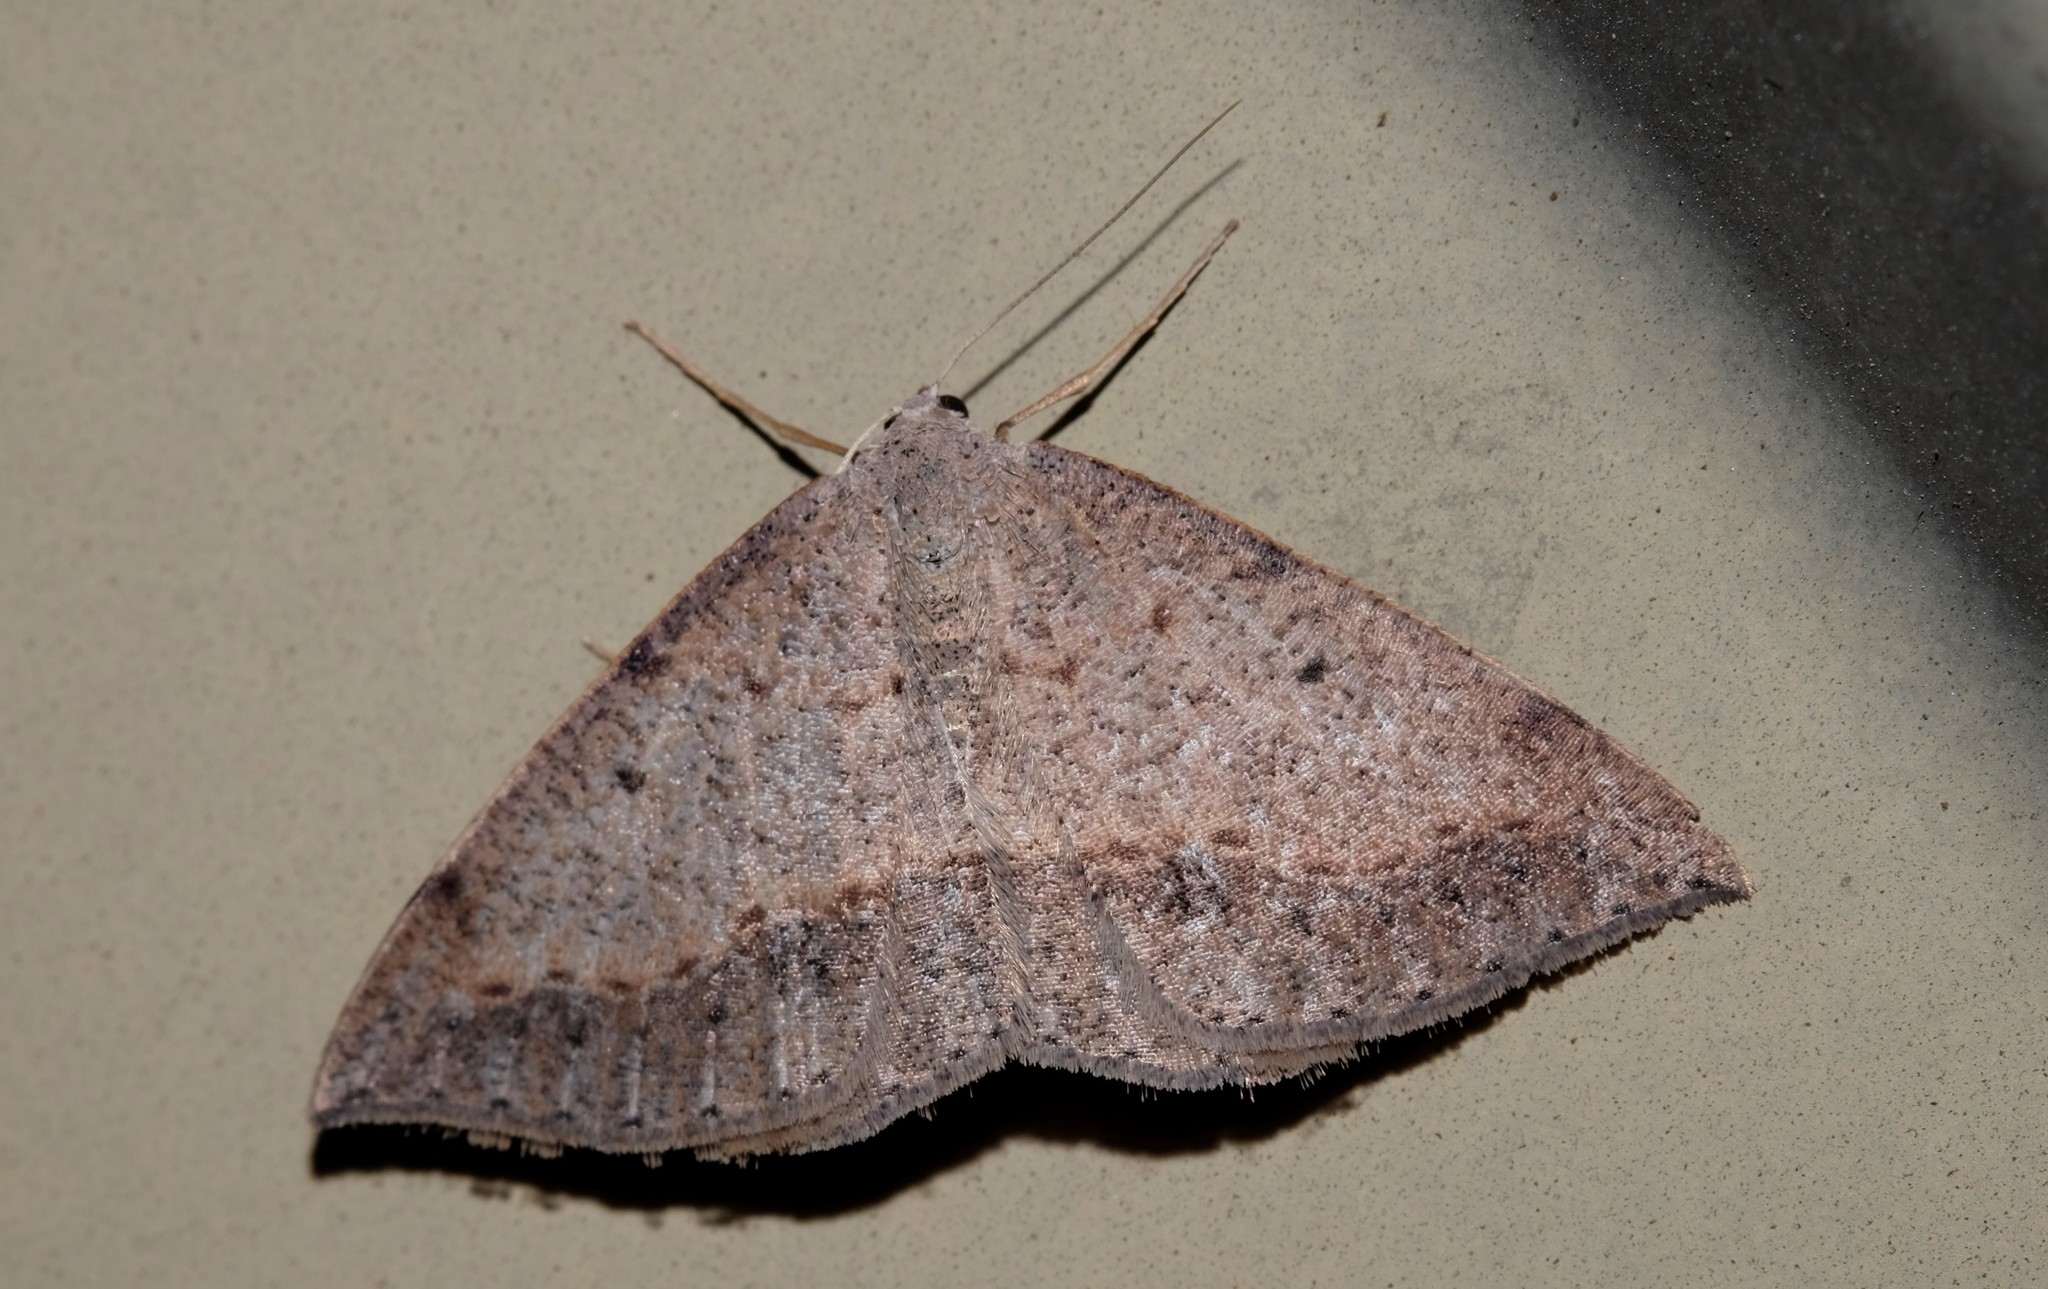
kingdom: Animalia
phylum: Arthropoda
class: Insecta
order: Lepidoptera
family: Geometridae
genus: Taxeotis
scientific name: Taxeotis perlinearia
